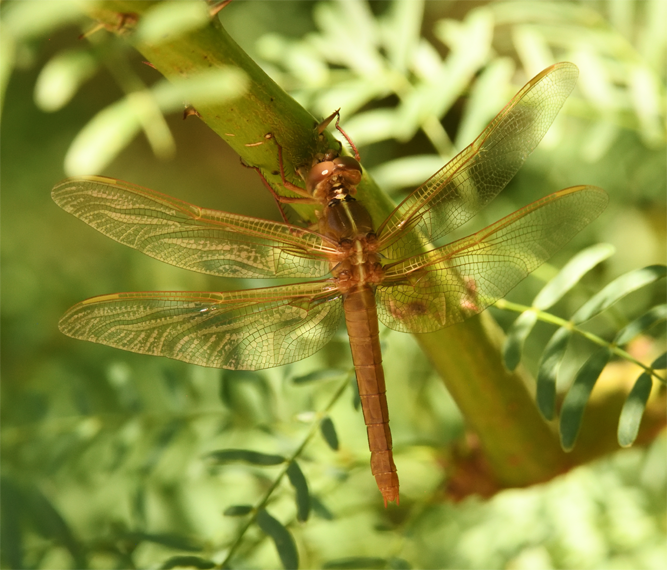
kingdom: Animalia
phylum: Arthropoda
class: Insecta
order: Odonata
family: Libellulidae
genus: Libellula
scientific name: Libellula saturata
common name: Flame skimmer
